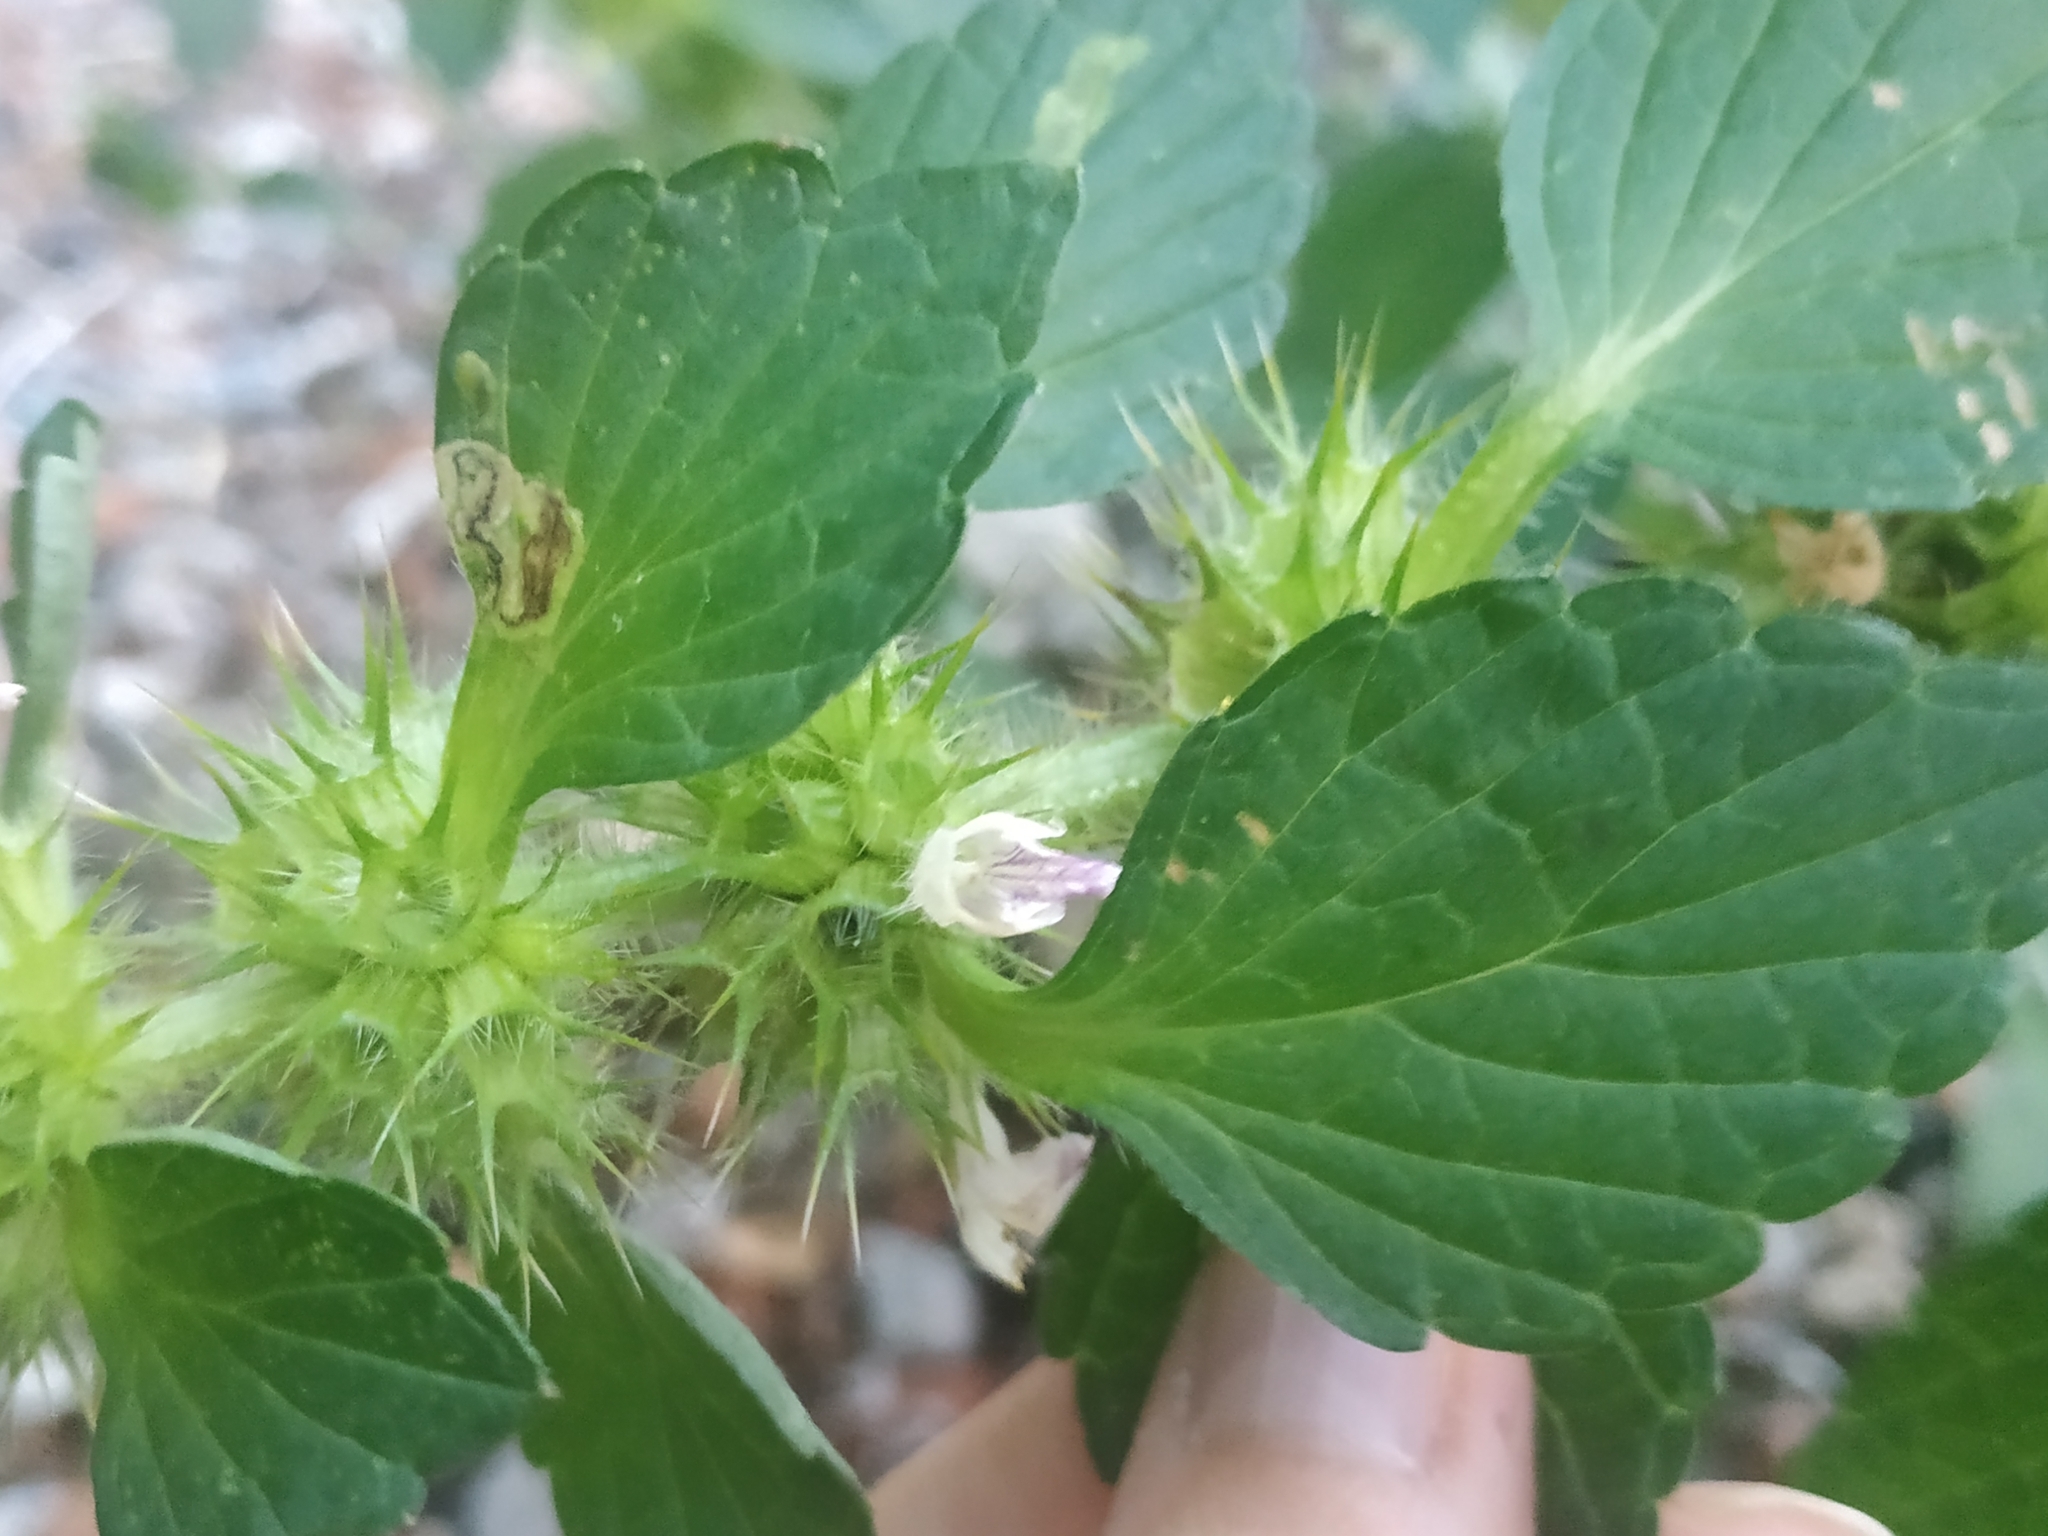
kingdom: Plantae
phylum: Tracheophyta
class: Magnoliopsida
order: Lamiales
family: Lamiaceae
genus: Galeopsis
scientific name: Galeopsis bifida
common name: Bifid hemp-nettle
